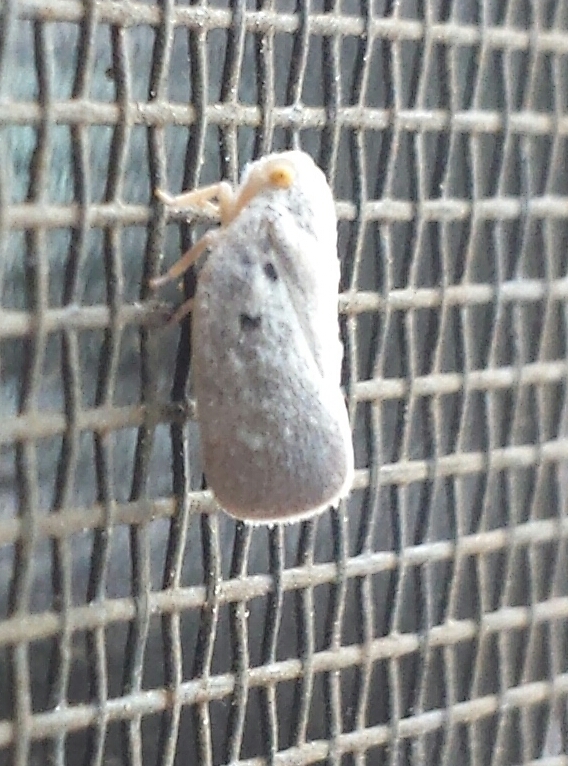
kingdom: Animalia
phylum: Arthropoda
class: Insecta
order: Hemiptera
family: Flatidae
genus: Metcalfa
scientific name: Metcalfa pruinosa
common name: Citrus flatid planthopper
